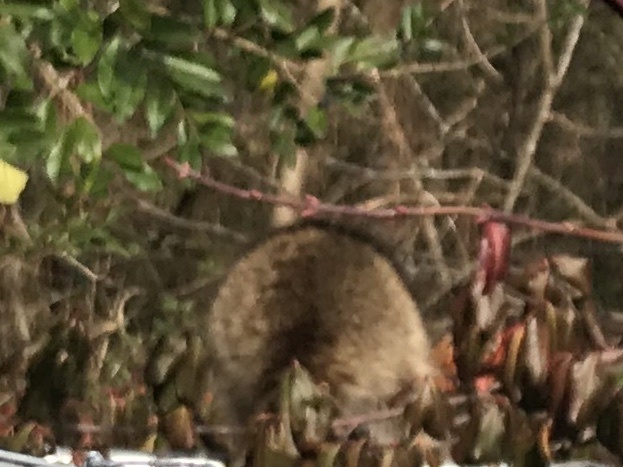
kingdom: Animalia
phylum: Chordata
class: Mammalia
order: Carnivora
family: Procyonidae
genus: Procyon
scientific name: Procyon lotor
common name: Raccoon
